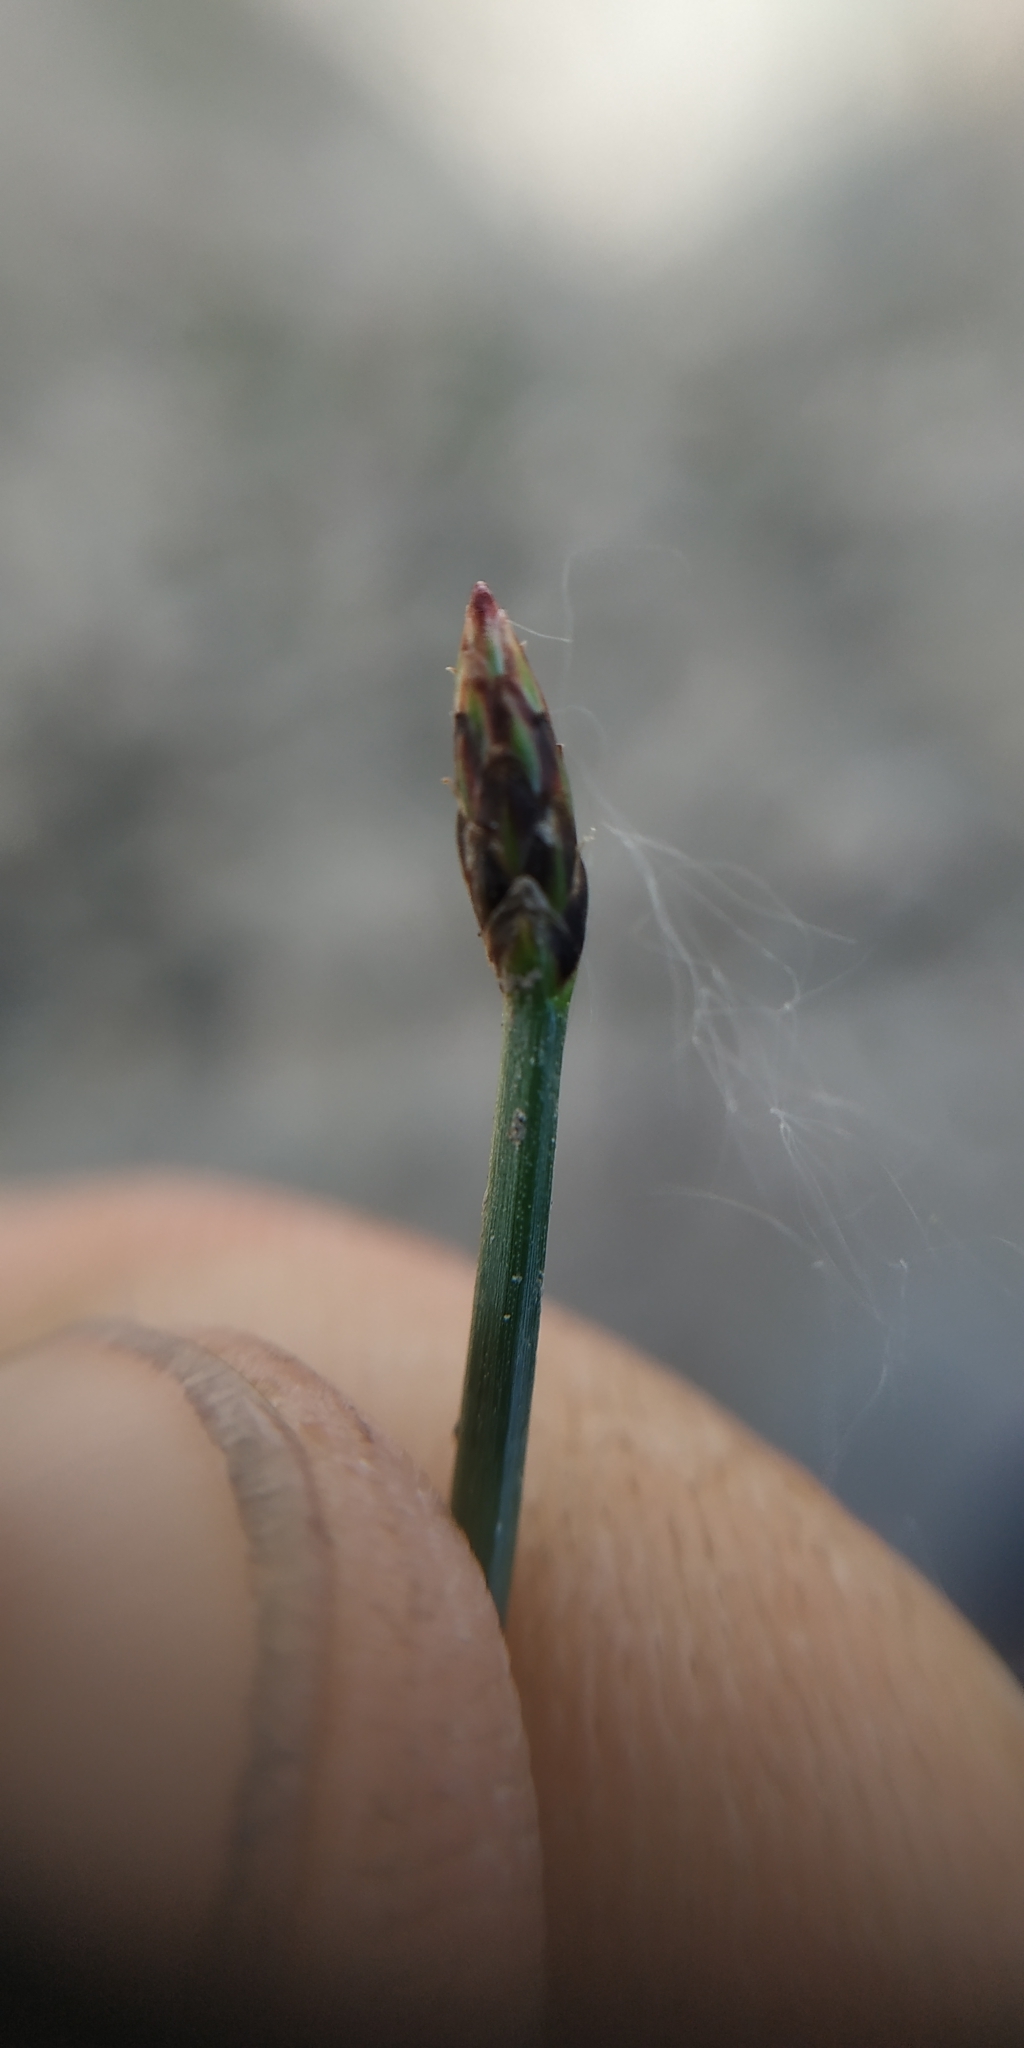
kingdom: Plantae
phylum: Tracheophyta
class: Liliopsida
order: Poales
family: Cyperaceae
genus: Eleocharis
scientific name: Eleocharis palustris
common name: Common spike-rush
